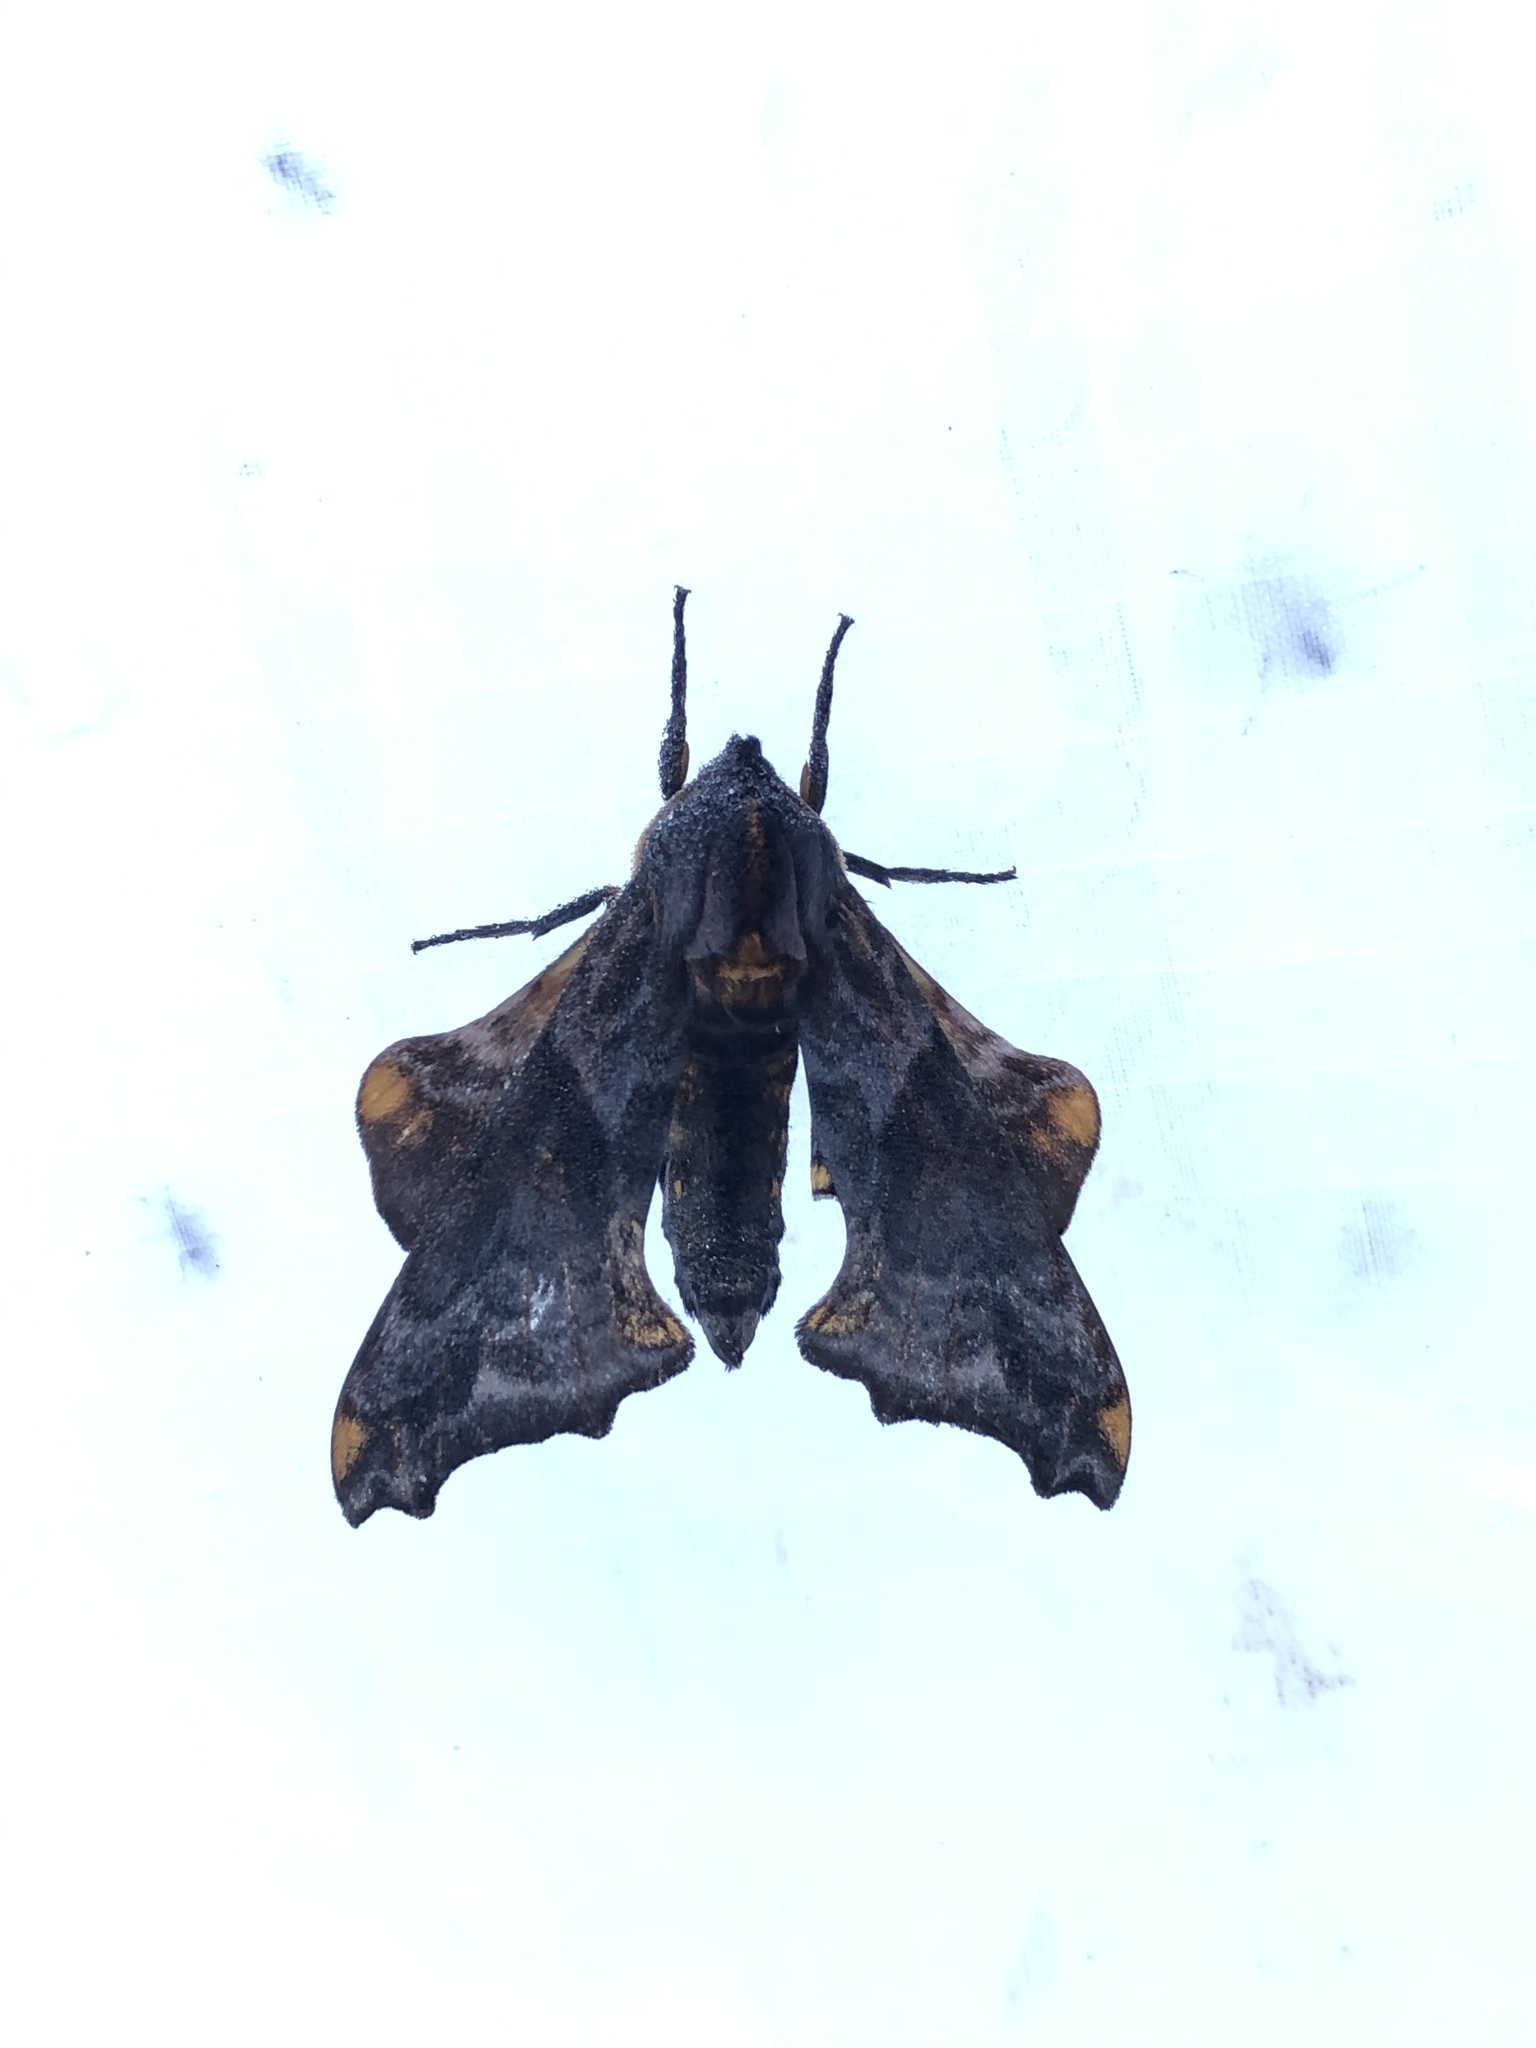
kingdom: Animalia
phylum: Arthropoda
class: Insecta
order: Lepidoptera
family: Sphingidae
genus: Paonias
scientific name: Paonias myops
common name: Small-eyed sphinx
